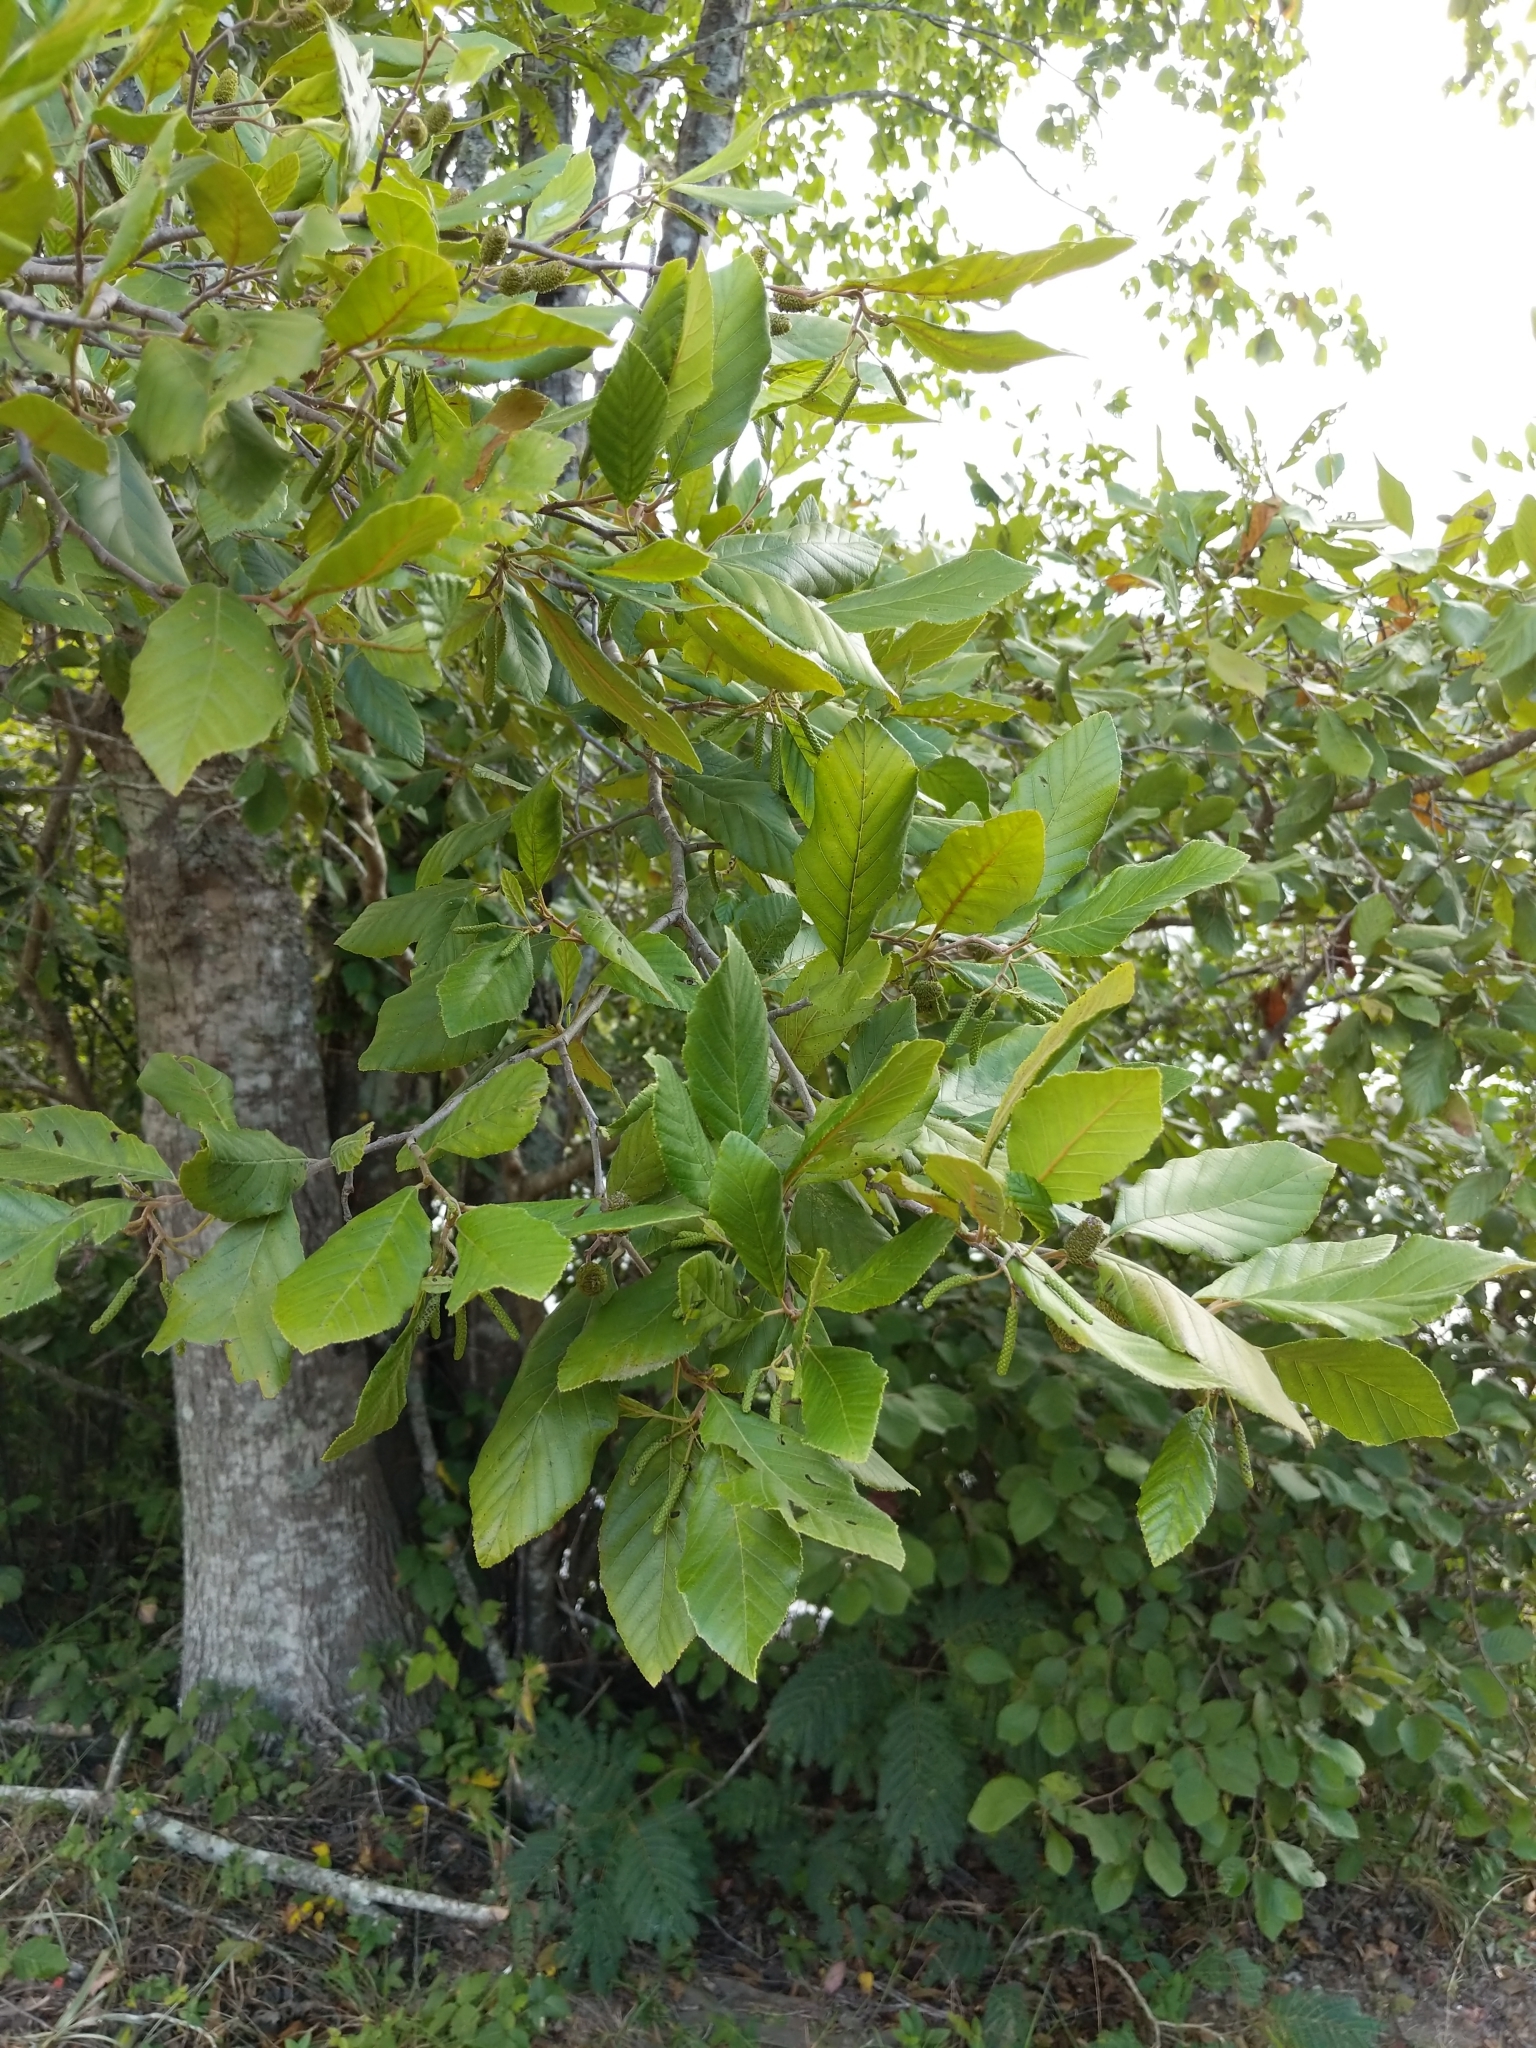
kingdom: Plantae
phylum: Tracheophyta
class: Magnoliopsida
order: Fagales
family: Betulaceae
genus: Alnus
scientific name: Alnus serrulata
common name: Hazel alder
